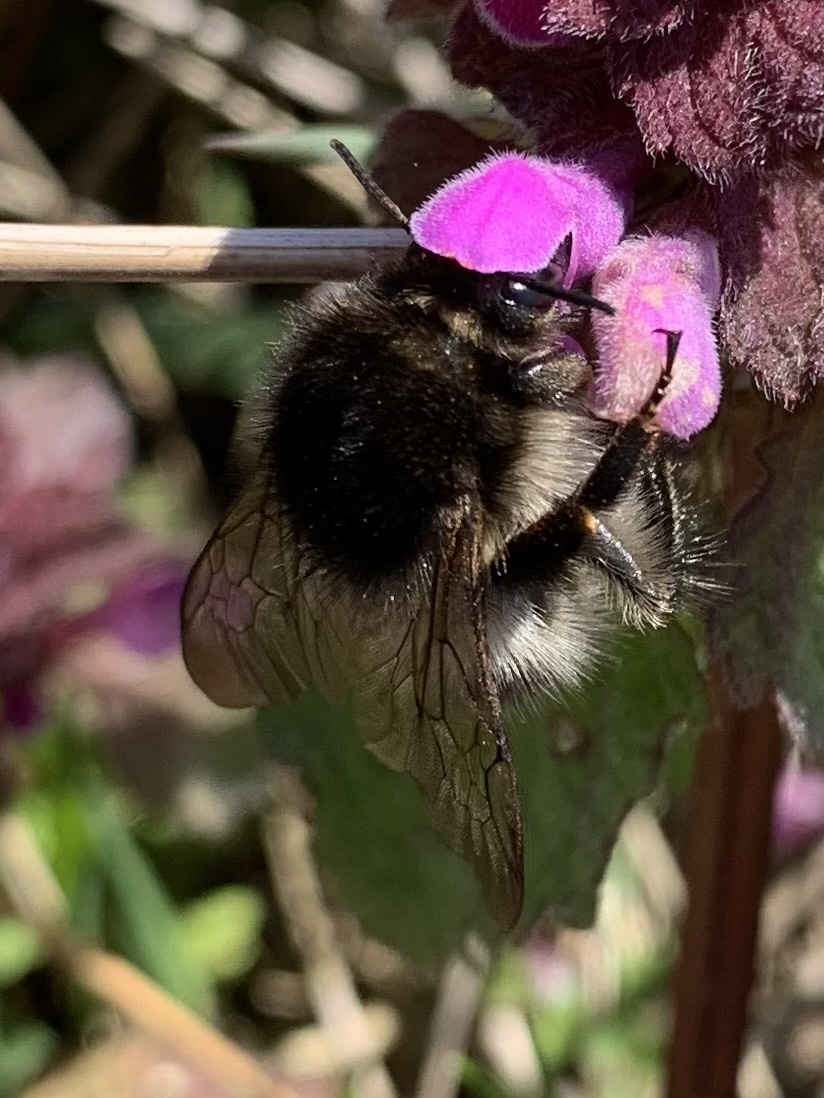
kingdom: Animalia
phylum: Arthropoda
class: Insecta
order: Hymenoptera
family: Apidae
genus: Bombus
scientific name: Bombus pascuorum
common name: Common carder bee
